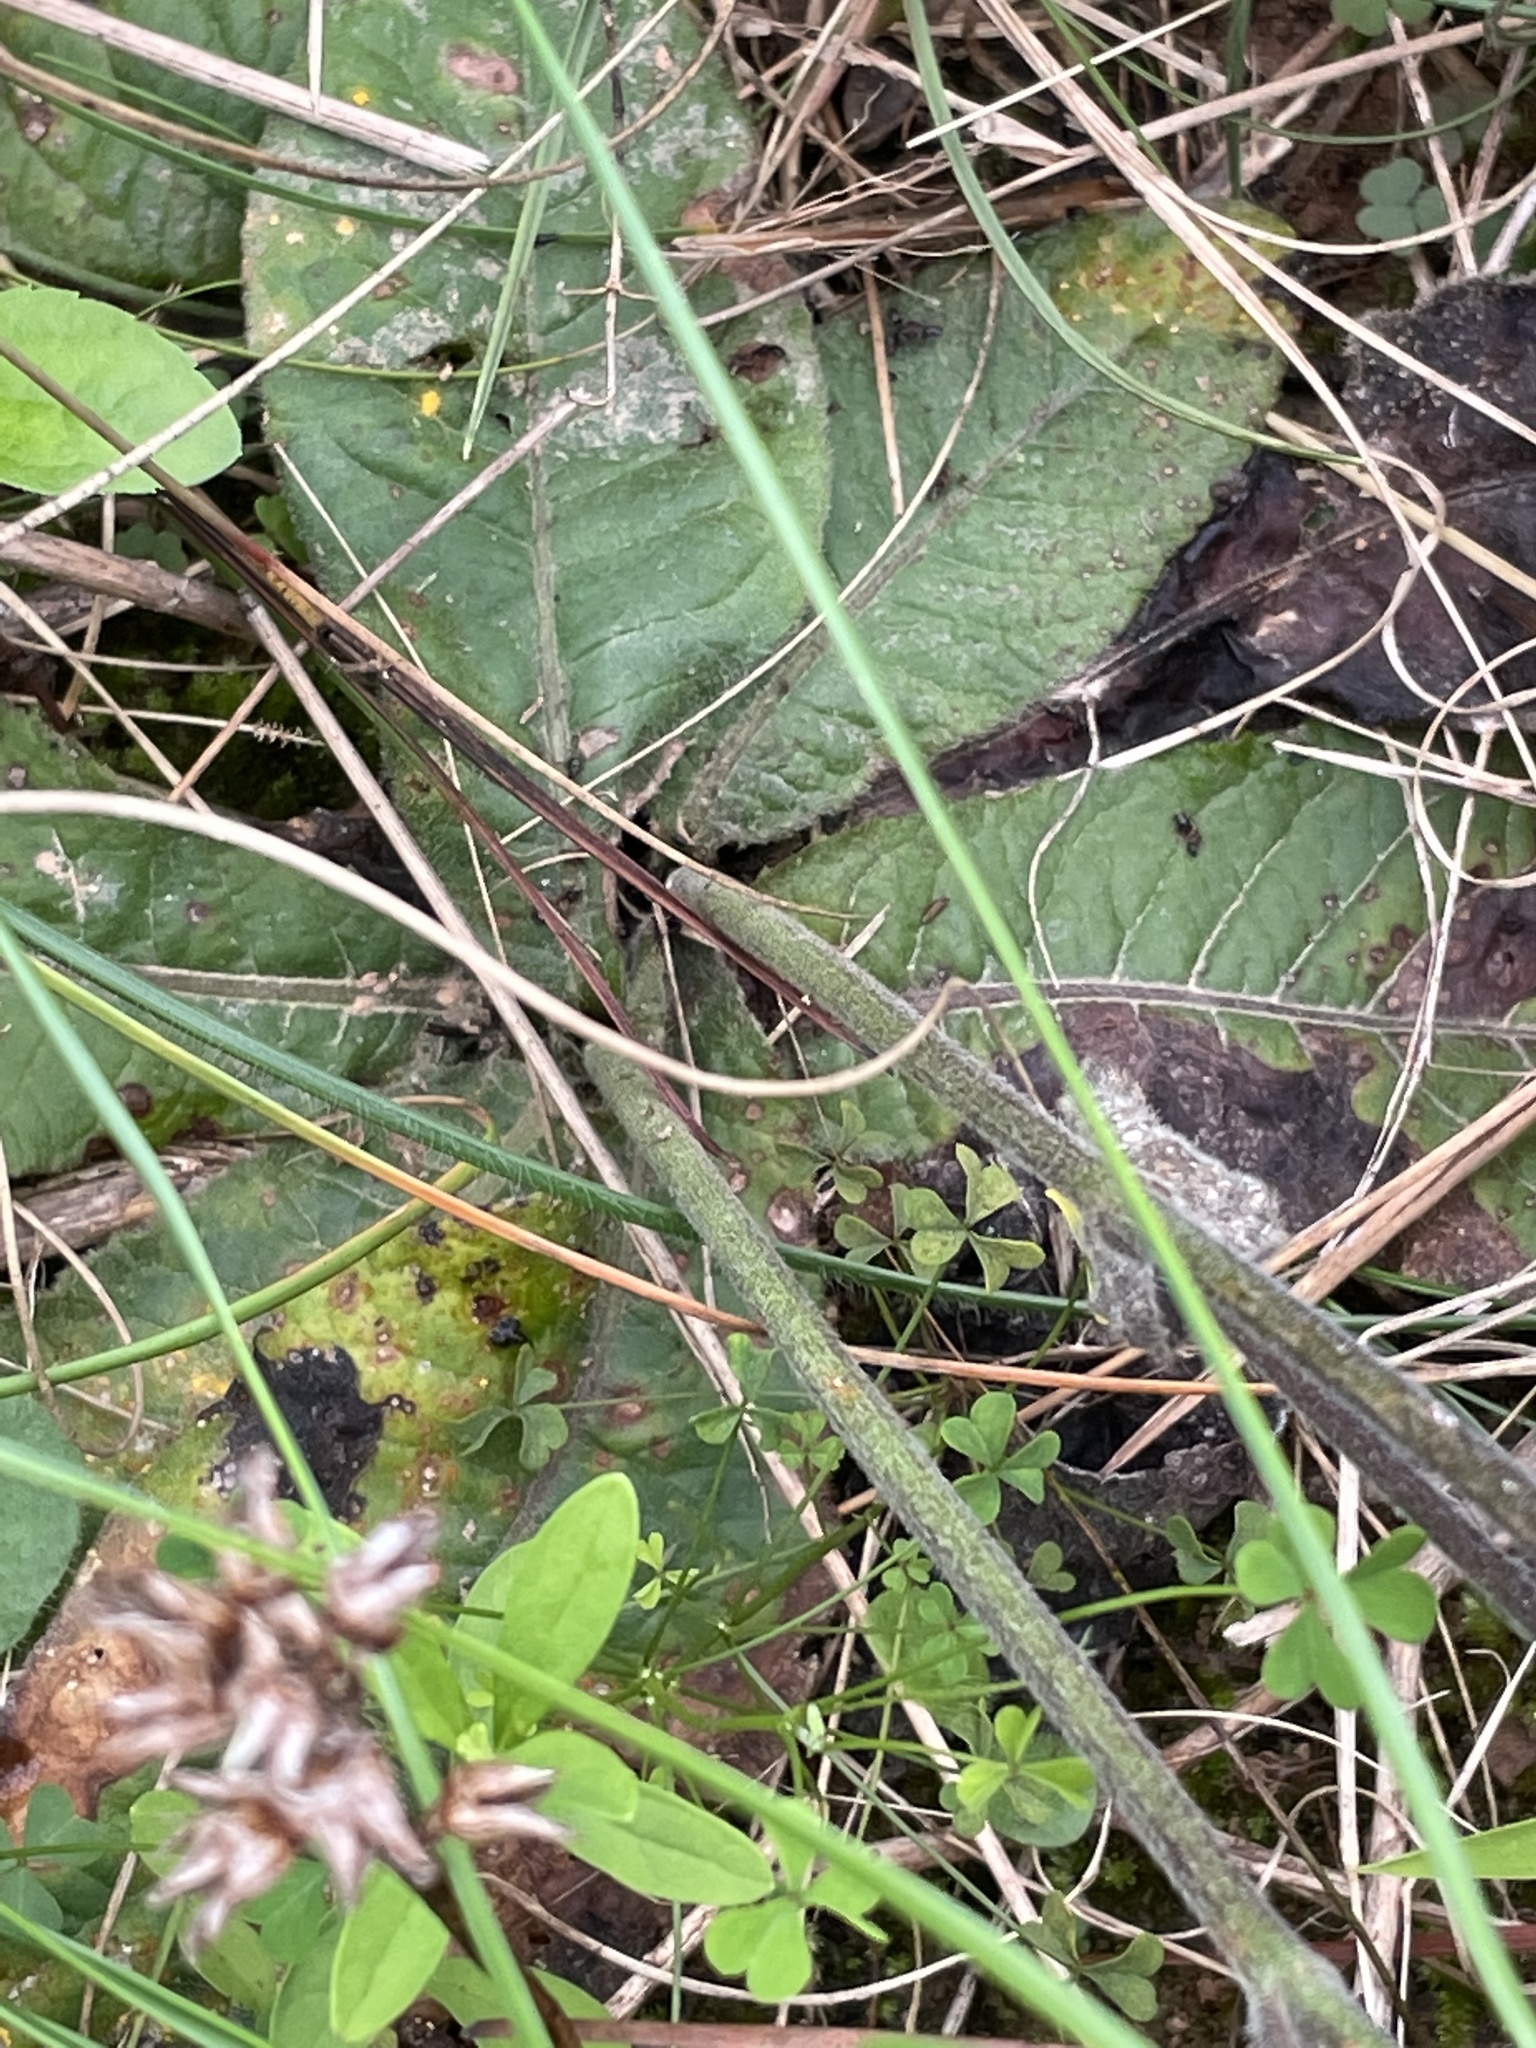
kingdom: Plantae
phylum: Tracheophyta
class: Magnoliopsida
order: Asterales
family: Asteraceae
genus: Elephantopus
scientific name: Elephantopus tomentosus
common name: Tobacco-weed
